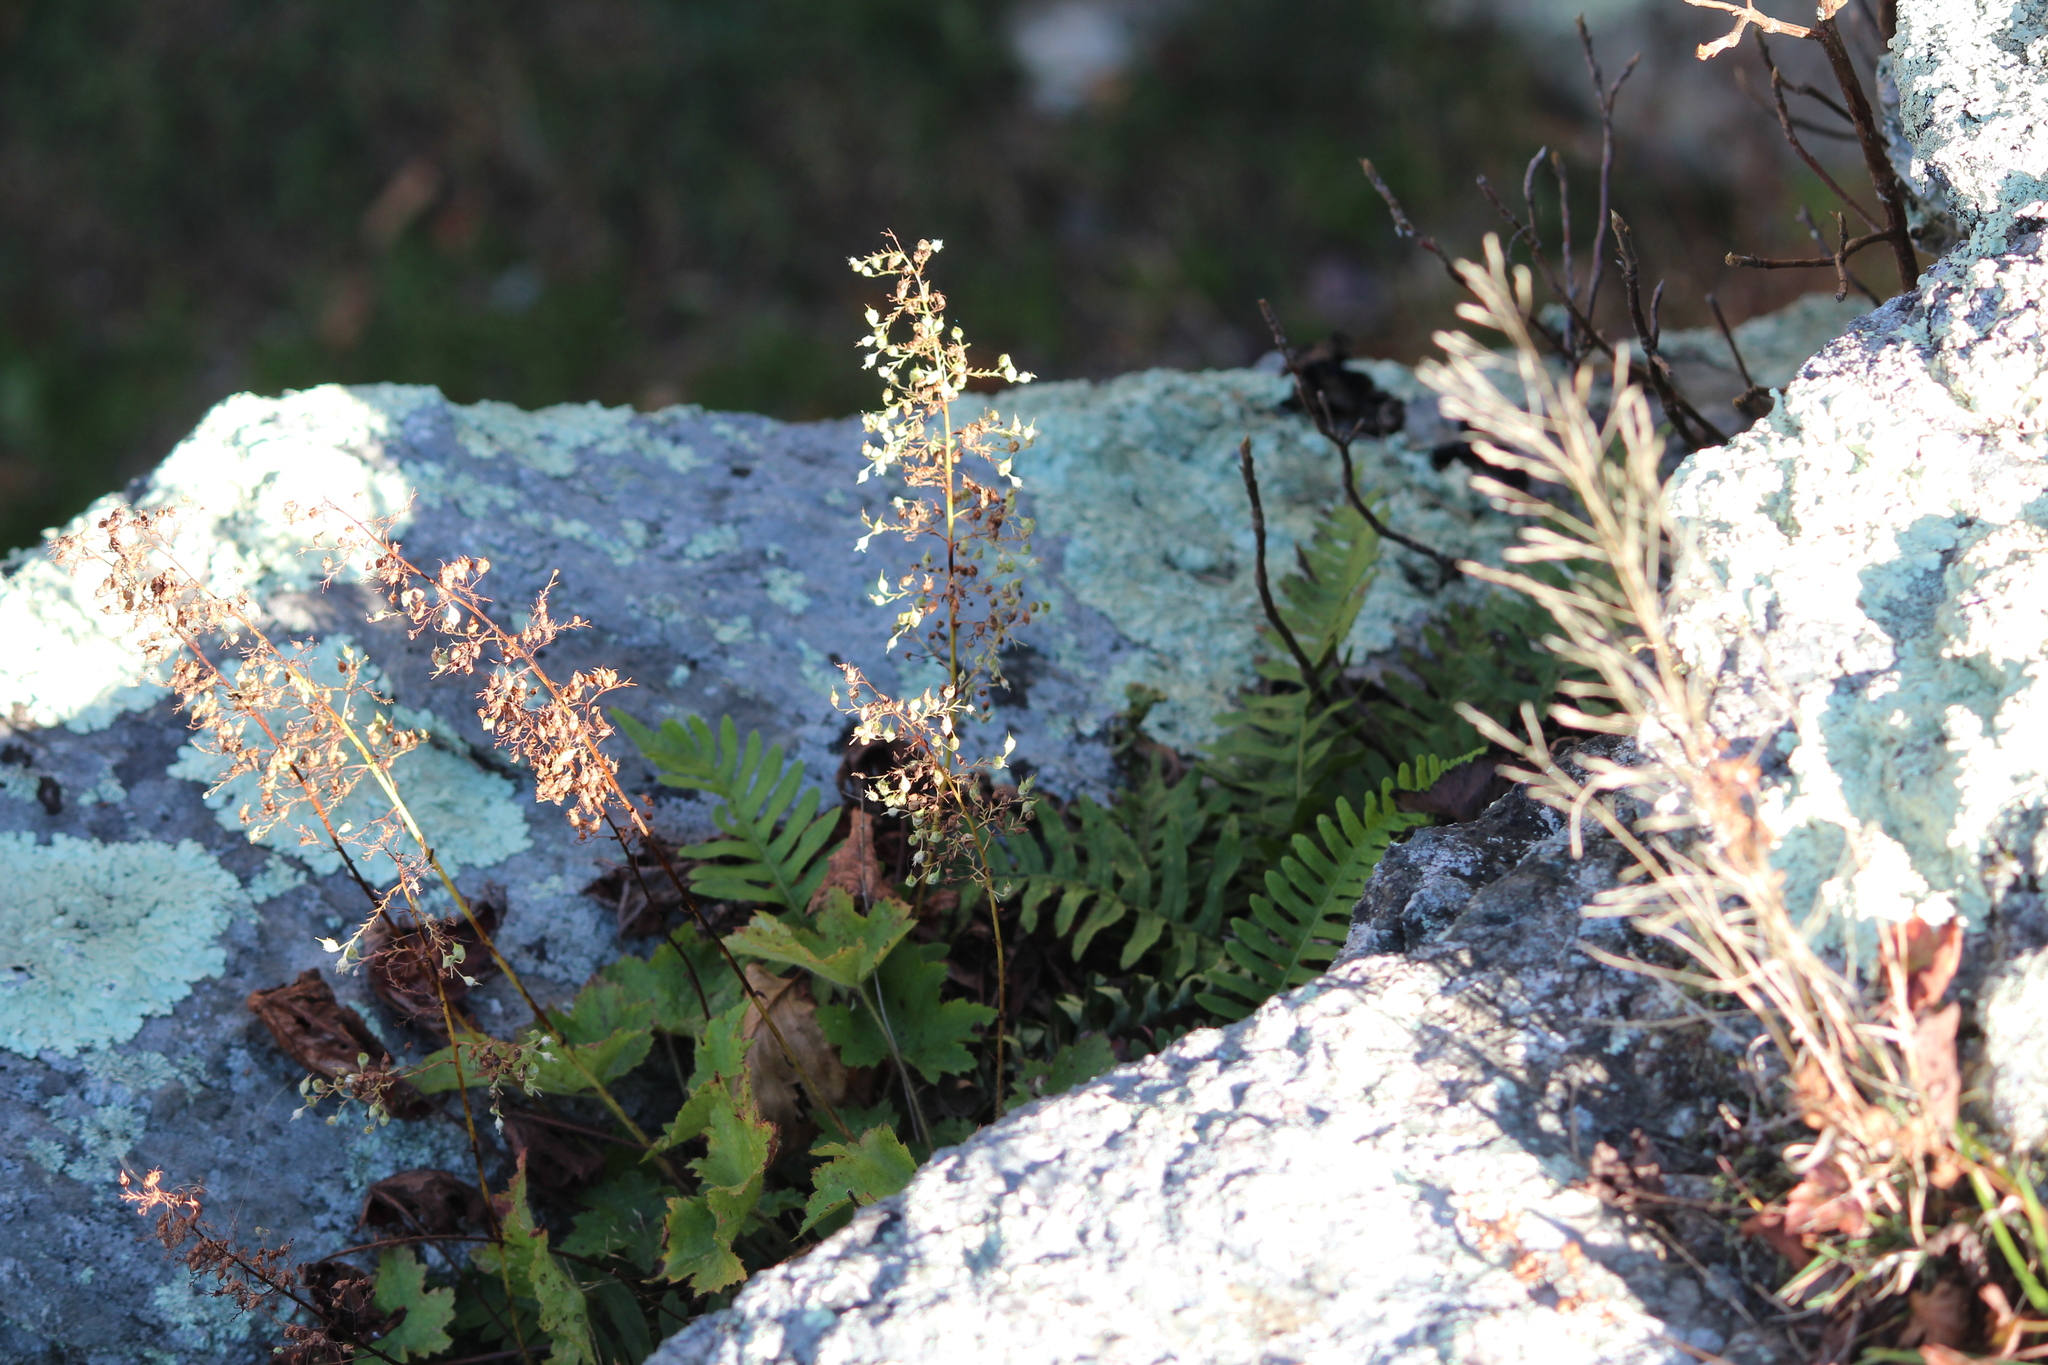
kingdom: Plantae
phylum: Tracheophyta
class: Magnoliopsida
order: Saxifragales
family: Saxifragaceae
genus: Heuchera
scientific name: Heuchera villosa
